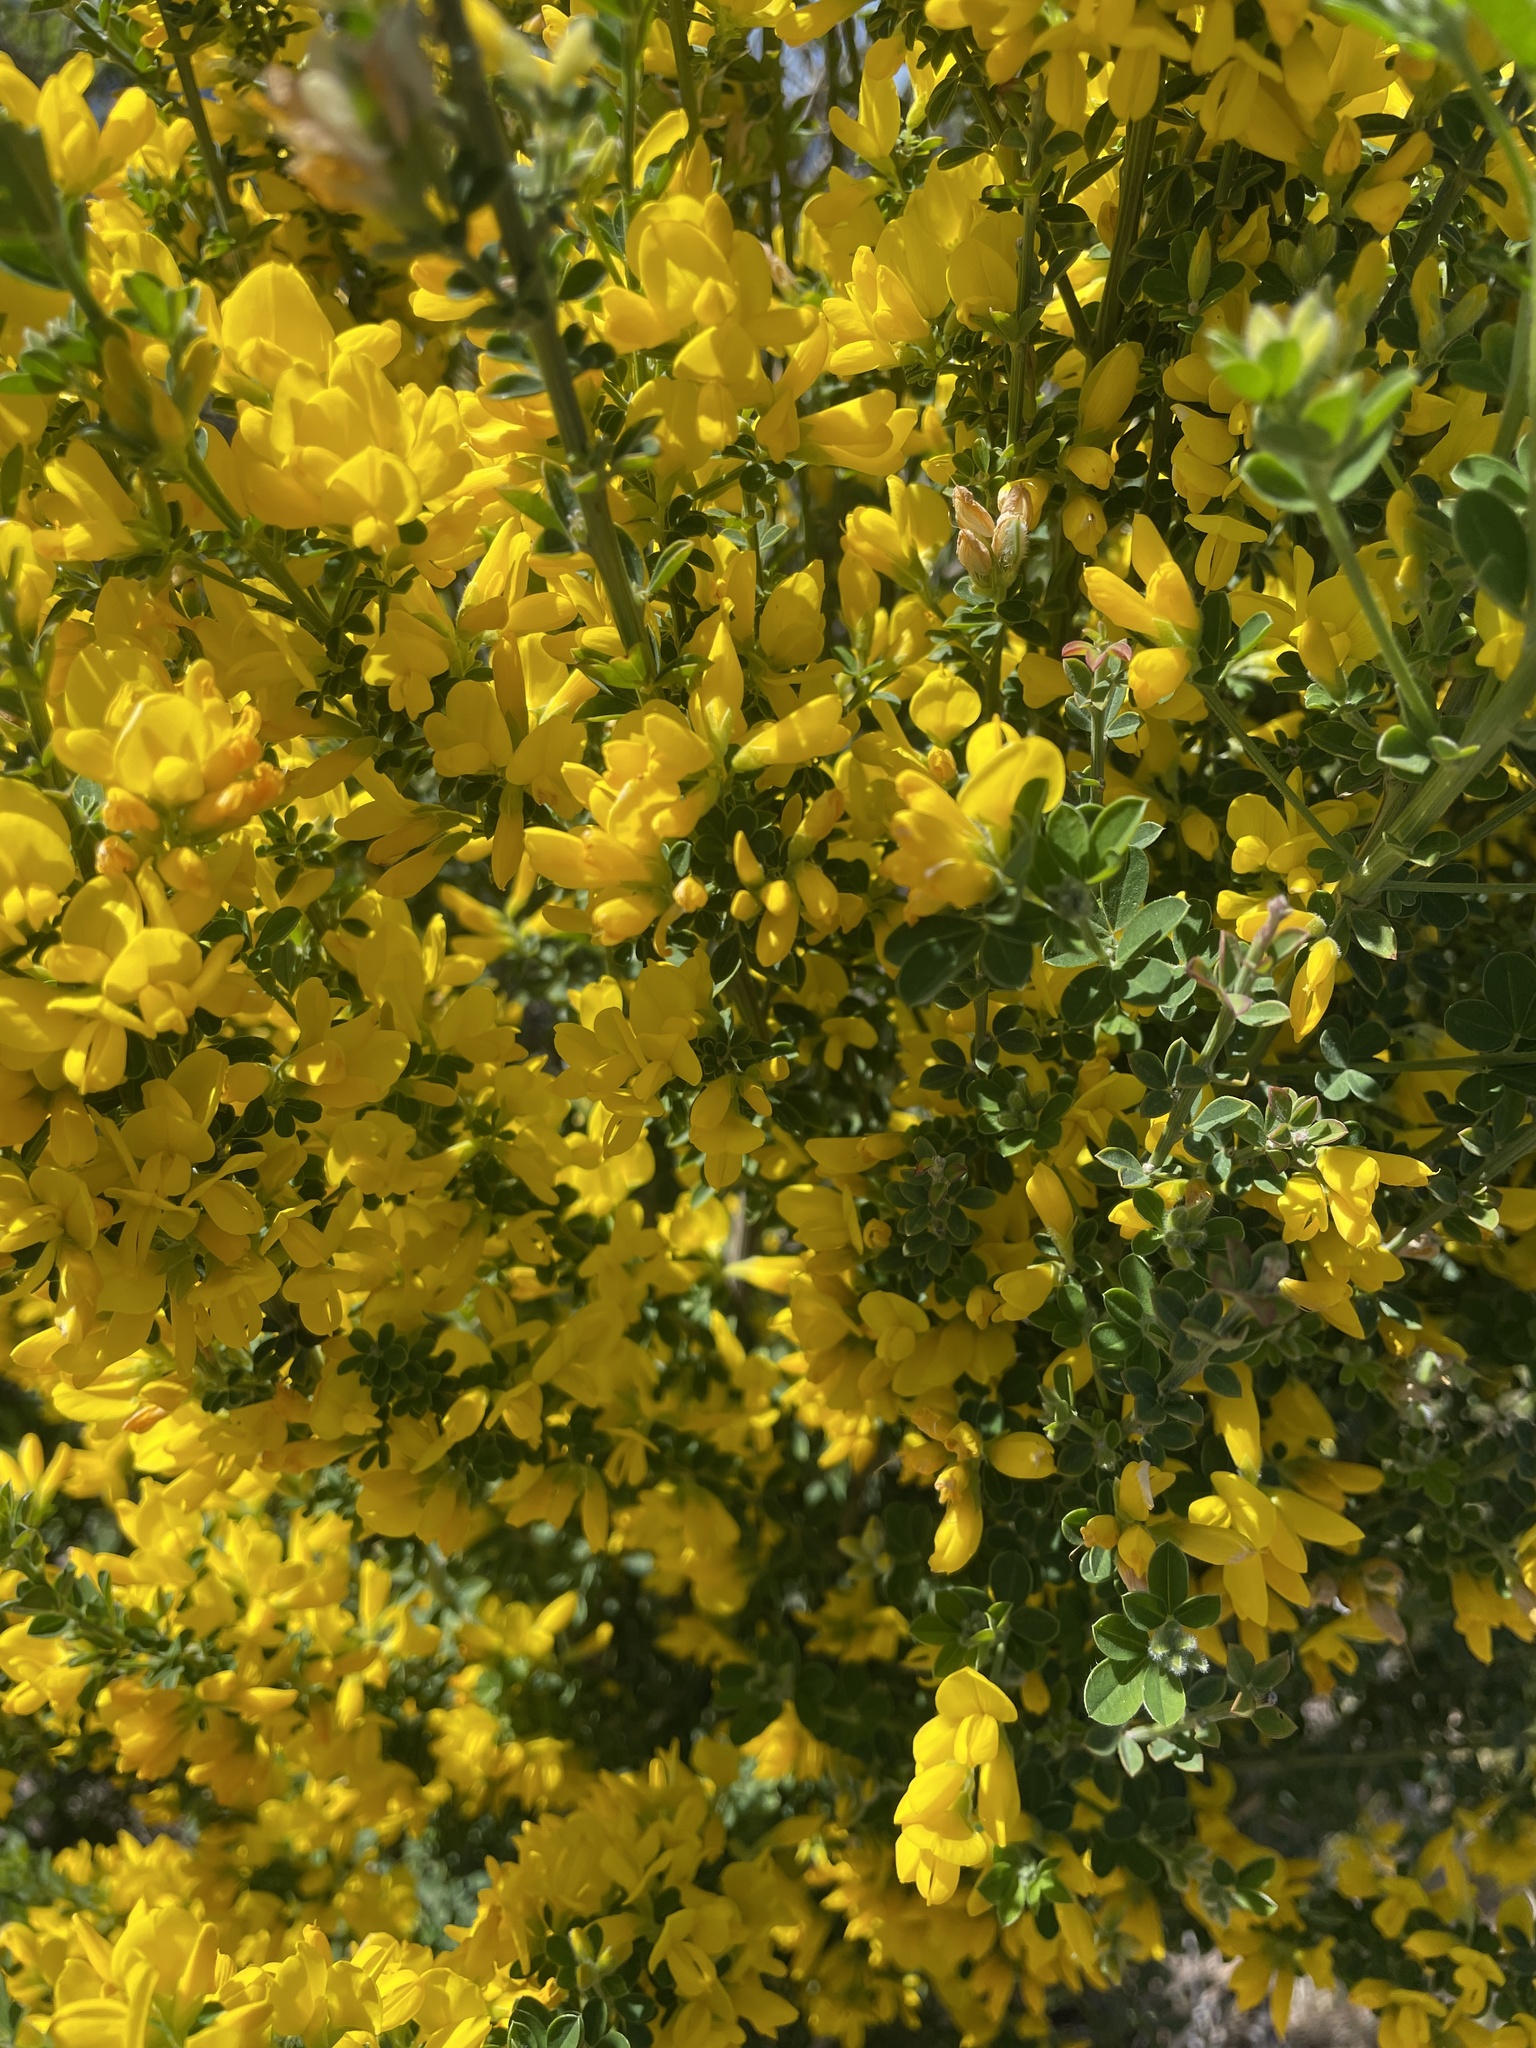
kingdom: Plantae
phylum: Tracheophyta
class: Magnoliopsida
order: Fabales
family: Fabaceae
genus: Genista
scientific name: Genista monspessulana
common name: Montpellier broom
